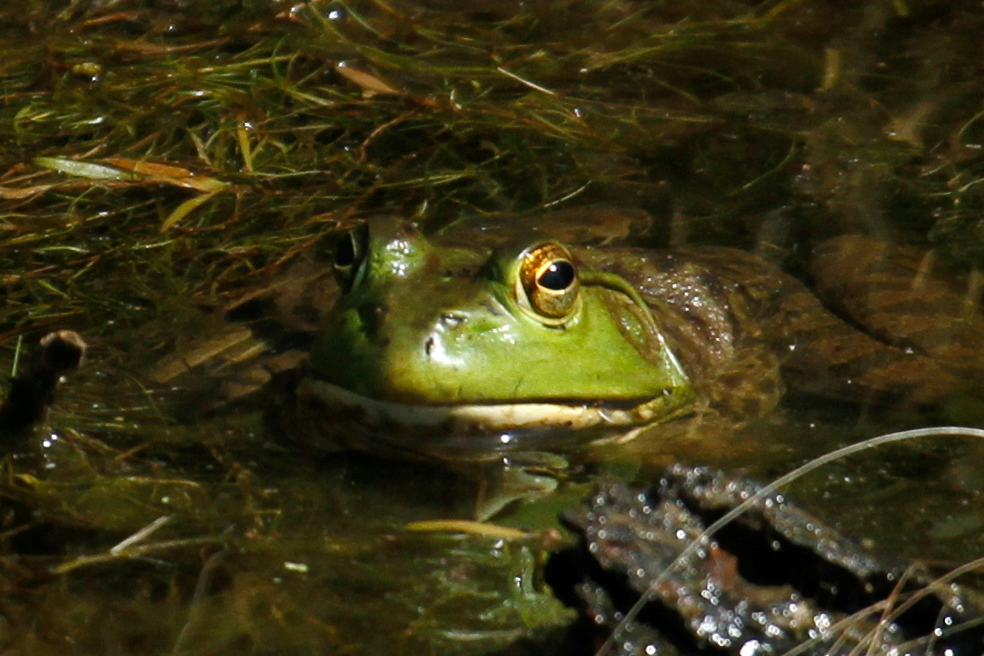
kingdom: Animalia
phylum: Chordata
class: Amphibia
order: Anura
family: Ranidae
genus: Lithobates
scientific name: Lithobates catesbeianus
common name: American bullfrog
